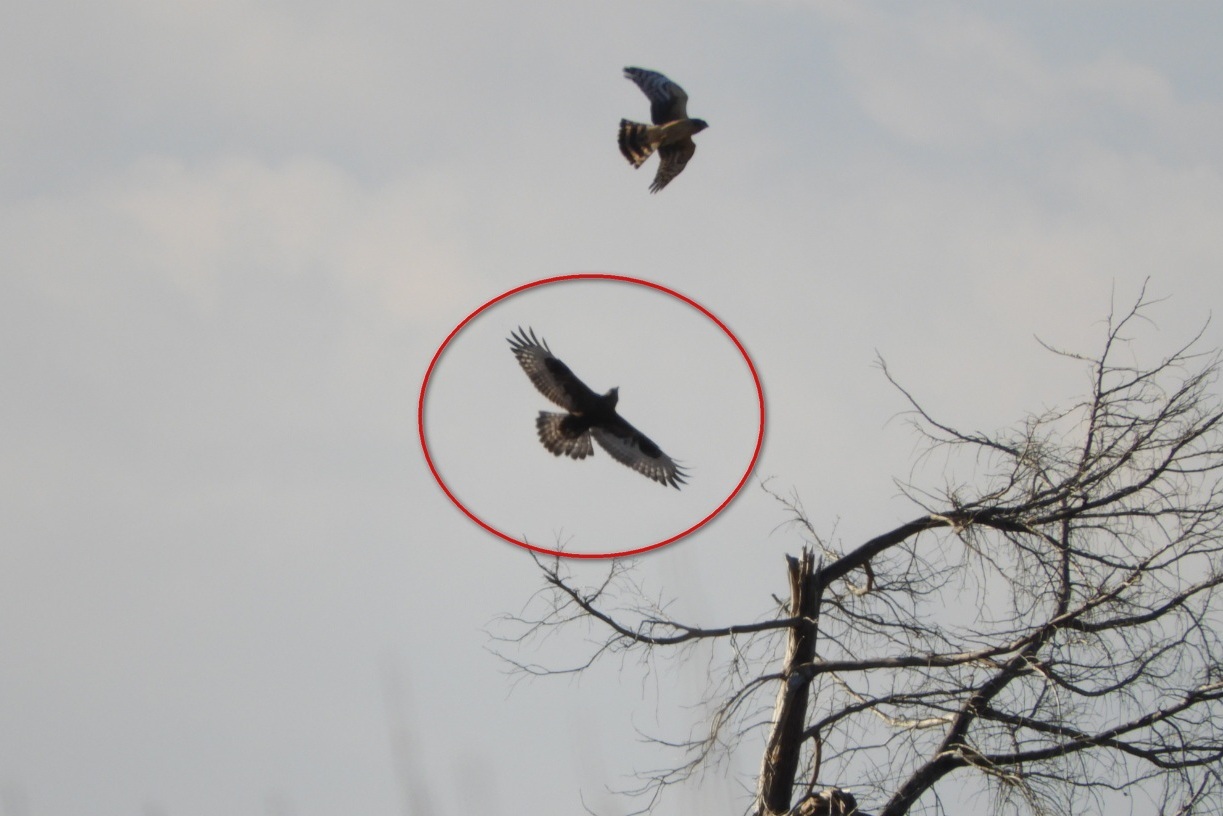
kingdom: Animalia
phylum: Chordata
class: Aves
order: Accipitriformes
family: Accipitridae
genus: Buteo
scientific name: Buteo lagopus
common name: Rough-legged buzzard
